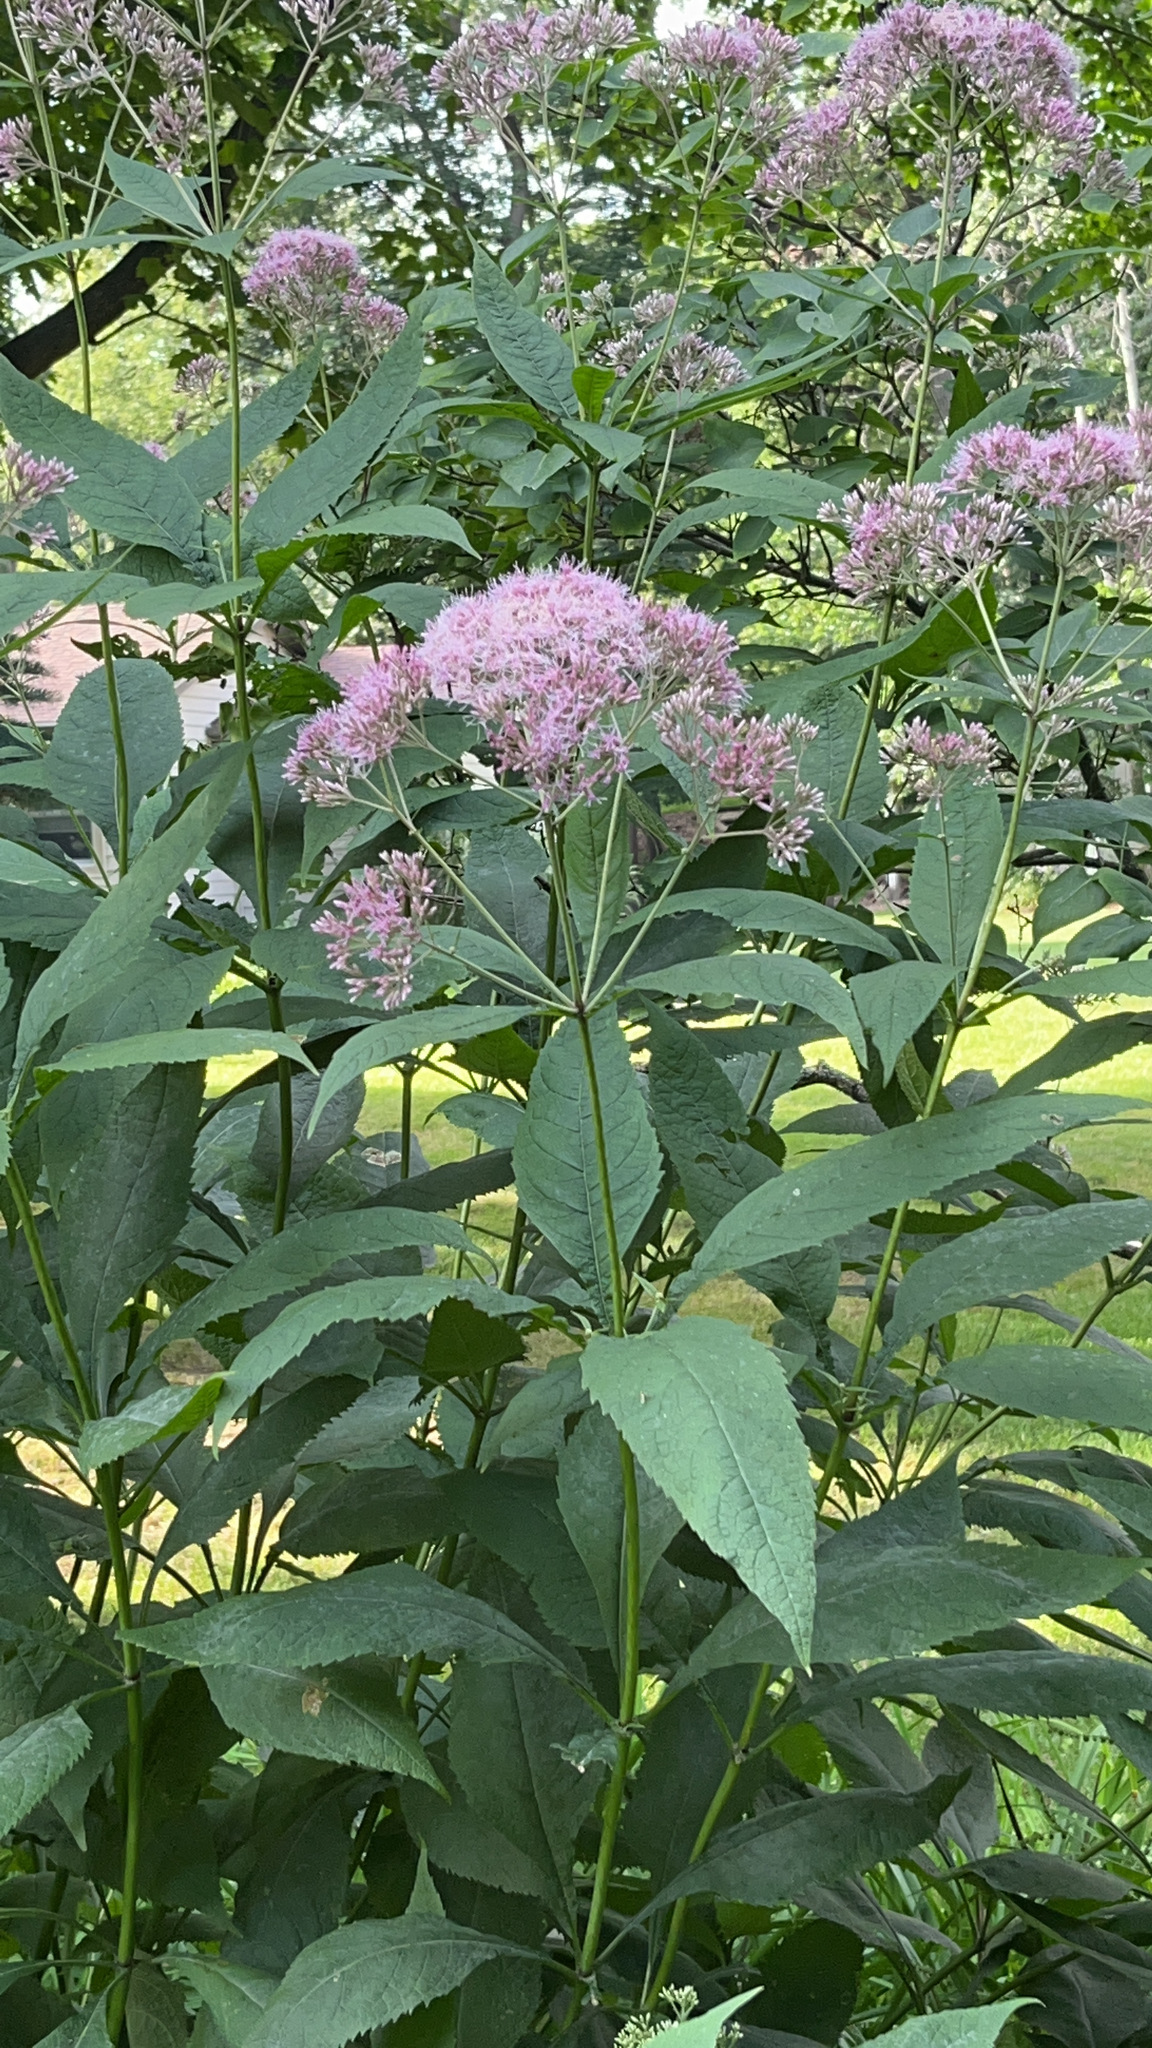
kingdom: Plantae
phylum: Tracheophyta
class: Magnoliopsida
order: Asterales
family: Asteraceae
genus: Eutrochium
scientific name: Eutrochium purpureum
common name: Gravelroot
